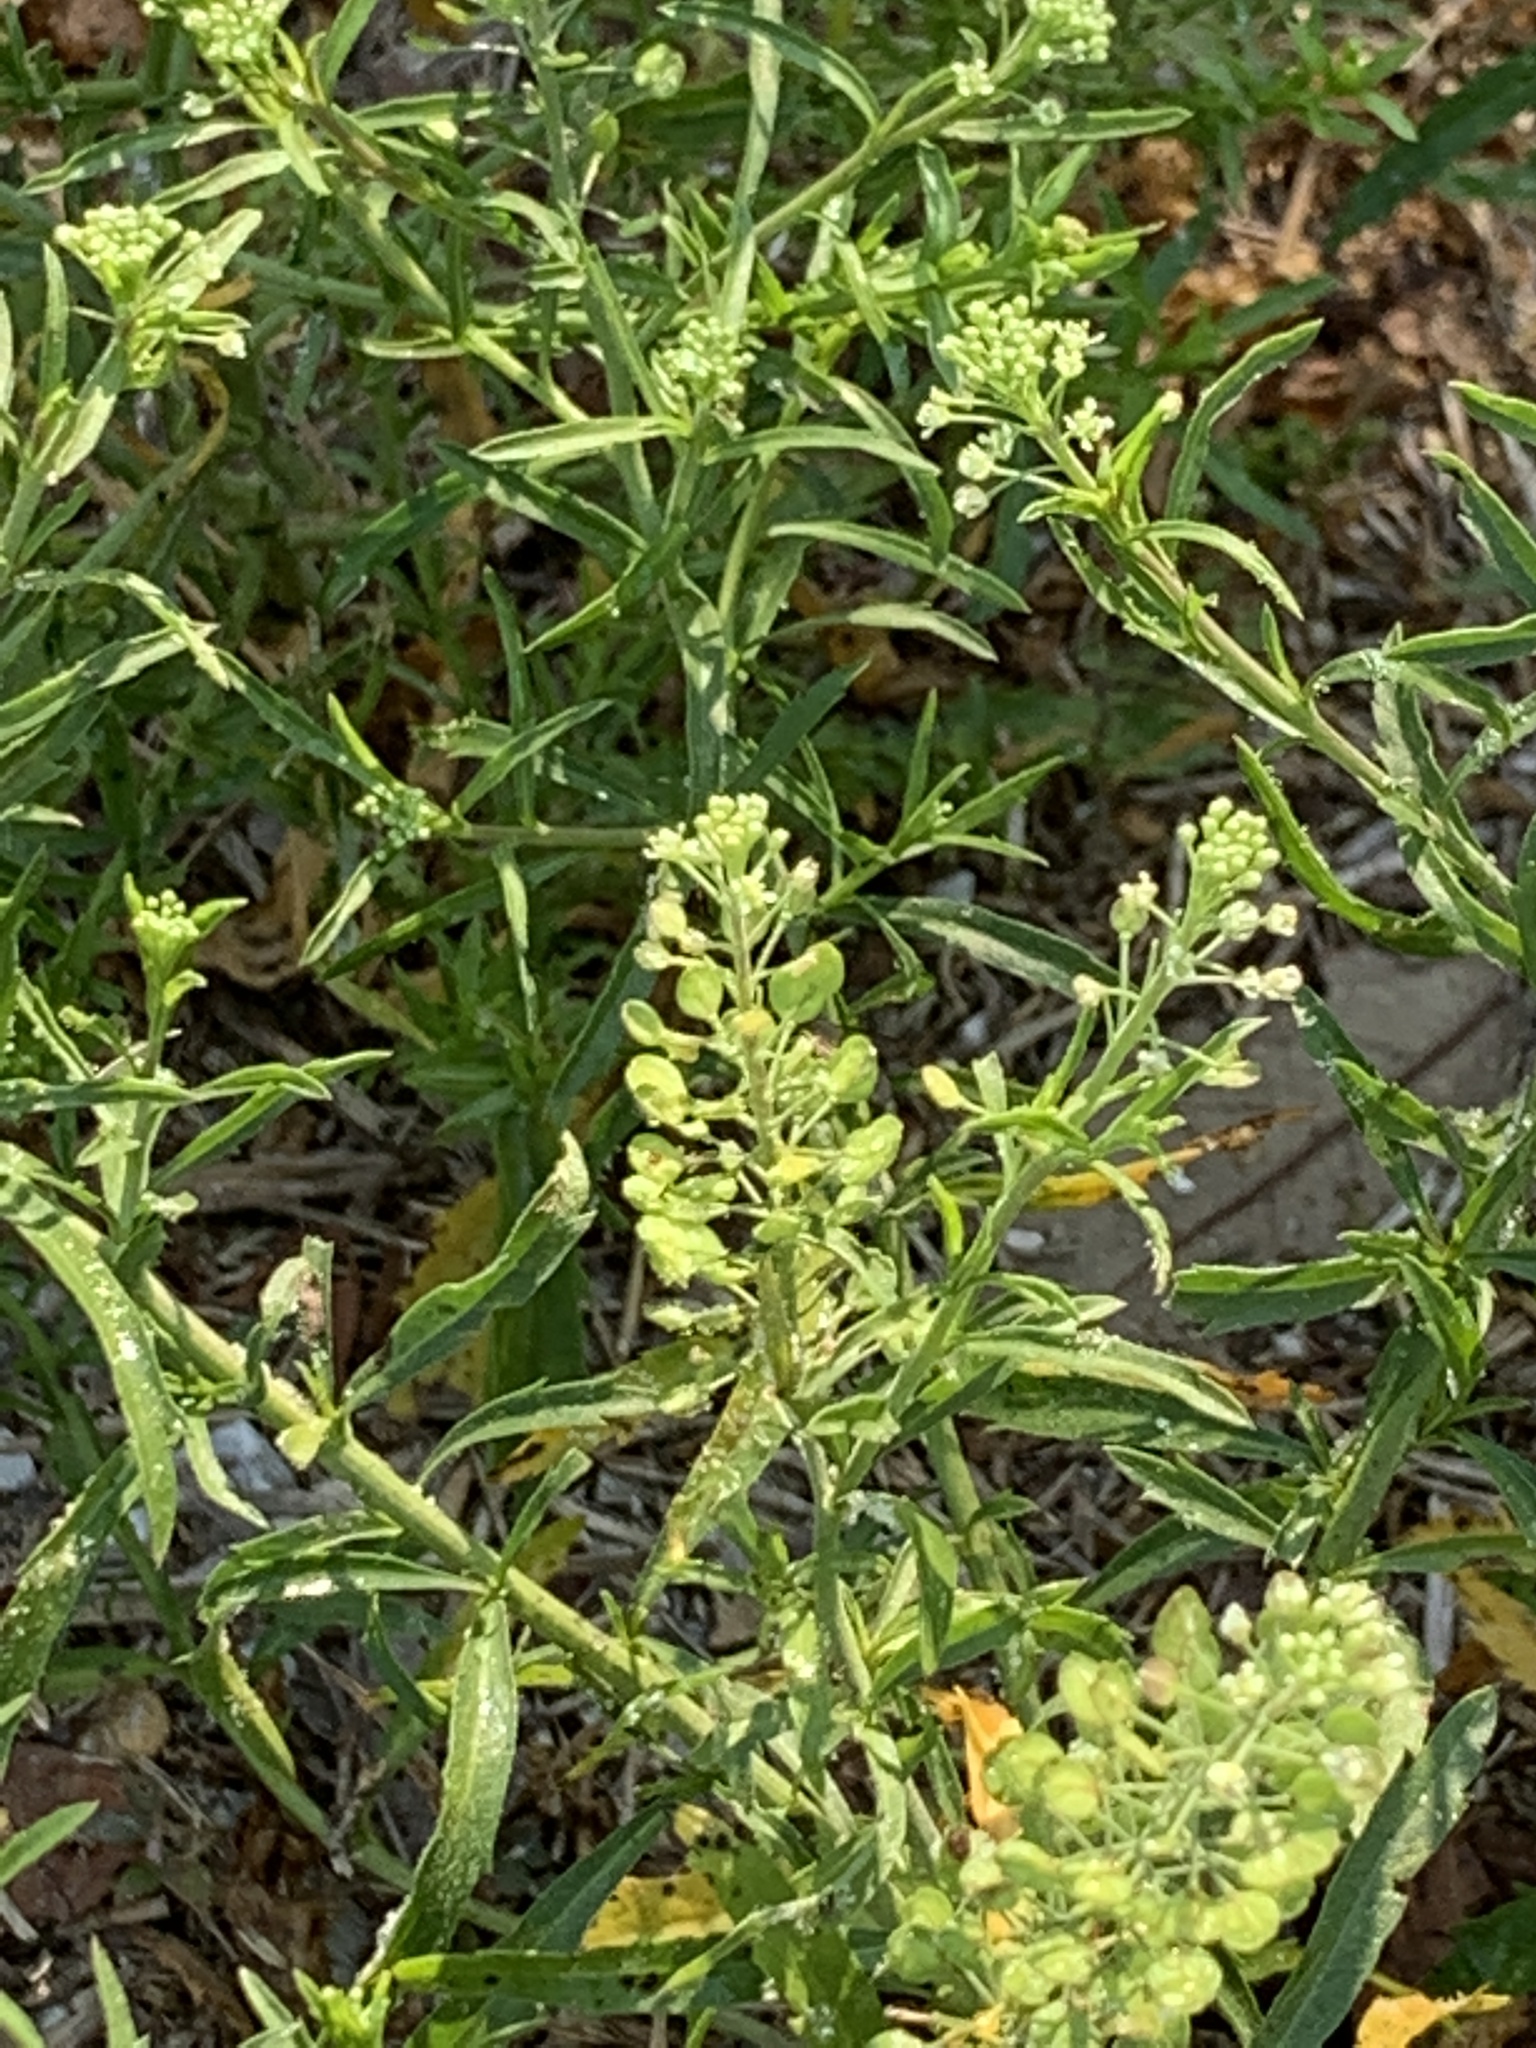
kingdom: Plantae
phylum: Tracheophyta
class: Magnoliopsida
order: Brassicales
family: Brassicaceae
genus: Lepidium
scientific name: Lepidium virginicum
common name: Least pepperwort
